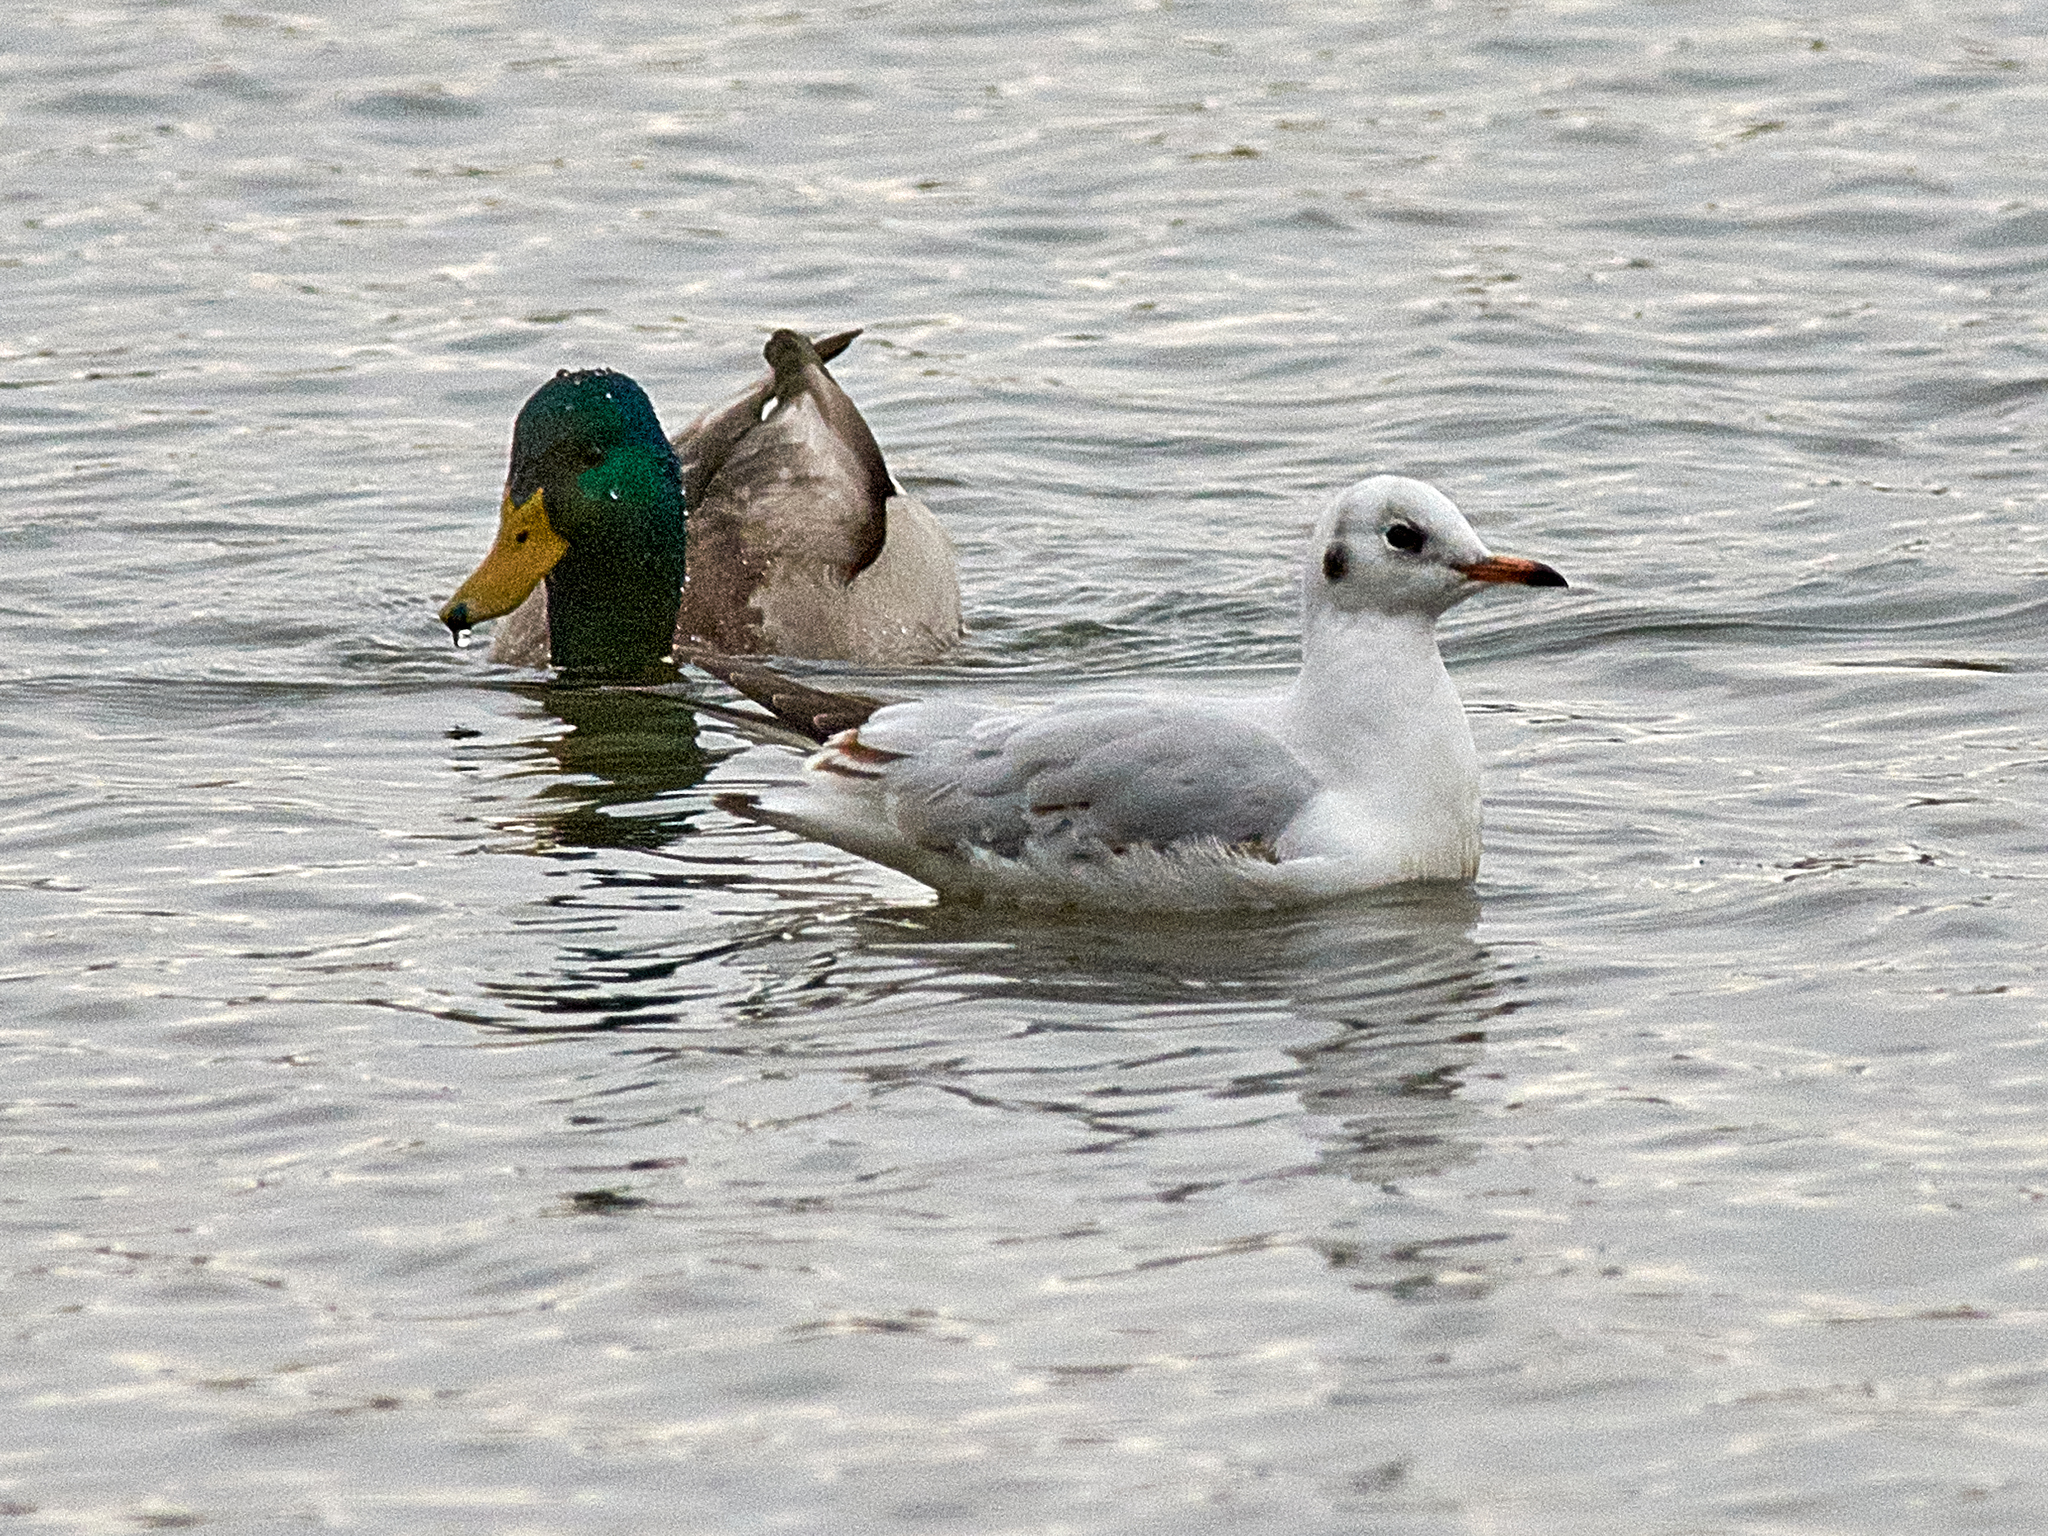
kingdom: Animalia
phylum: Chordata
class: Aves
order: Charadriiformes
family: Laridae
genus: Chroicocephalus
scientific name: Chroicocephalus ridibundus
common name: Black-headed gull
